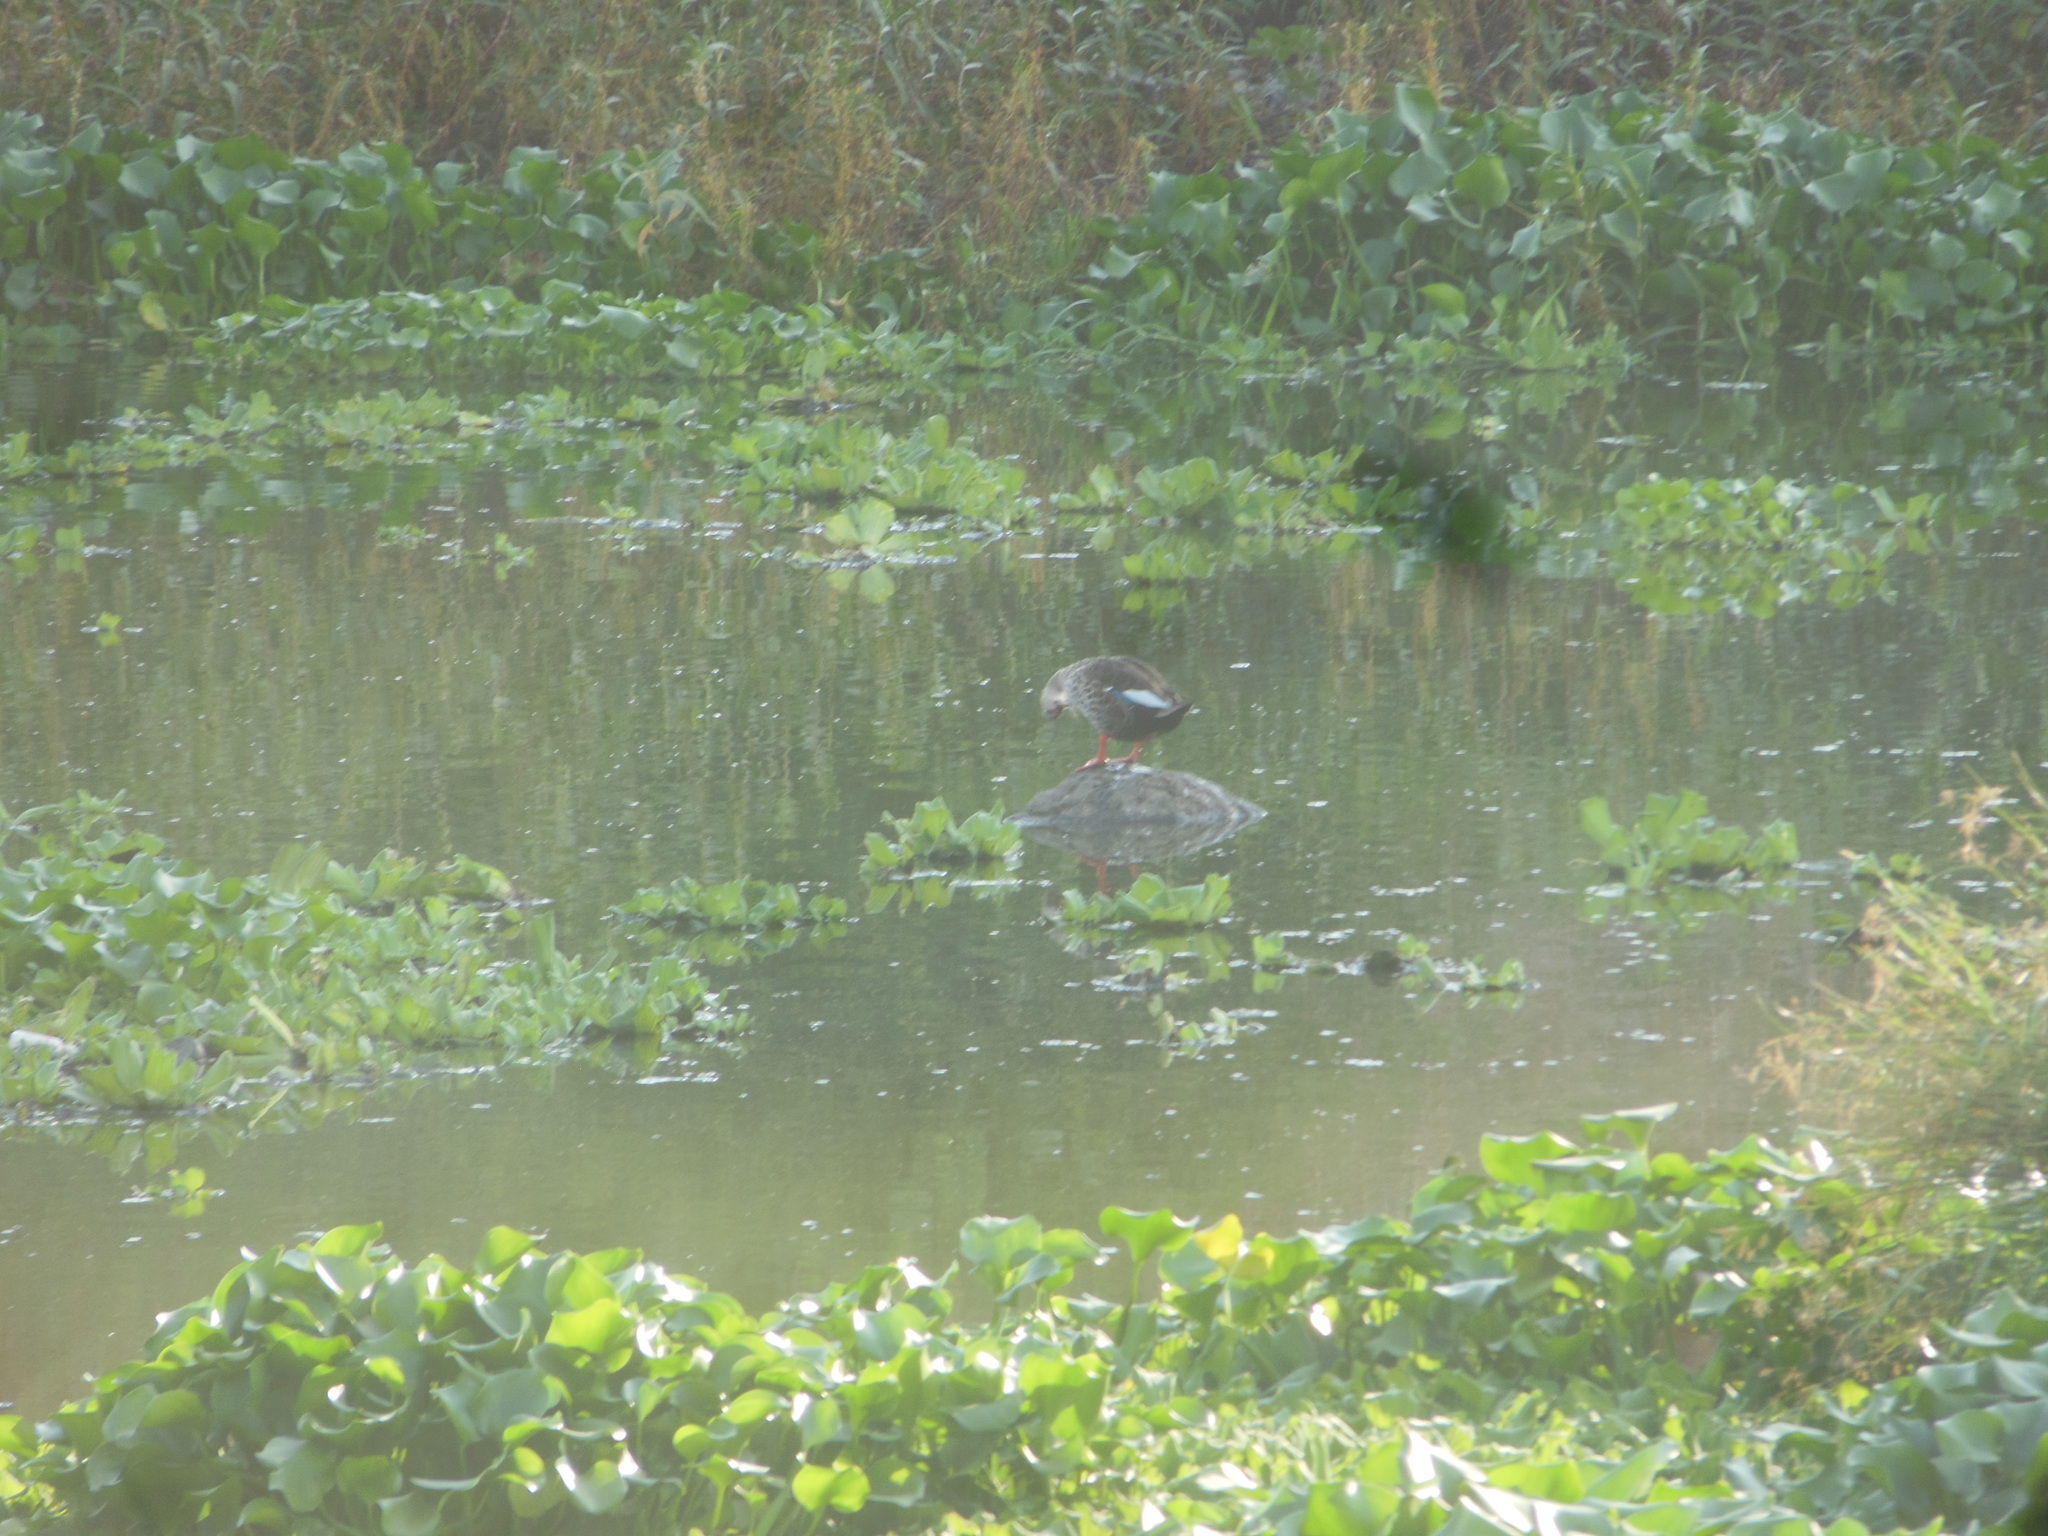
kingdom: Animalia
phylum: Chordata
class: Aves
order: Anseriformes
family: Anatidae
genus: Anas
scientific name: Anas poecilorhyncha
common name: Indian spot-billed duck
